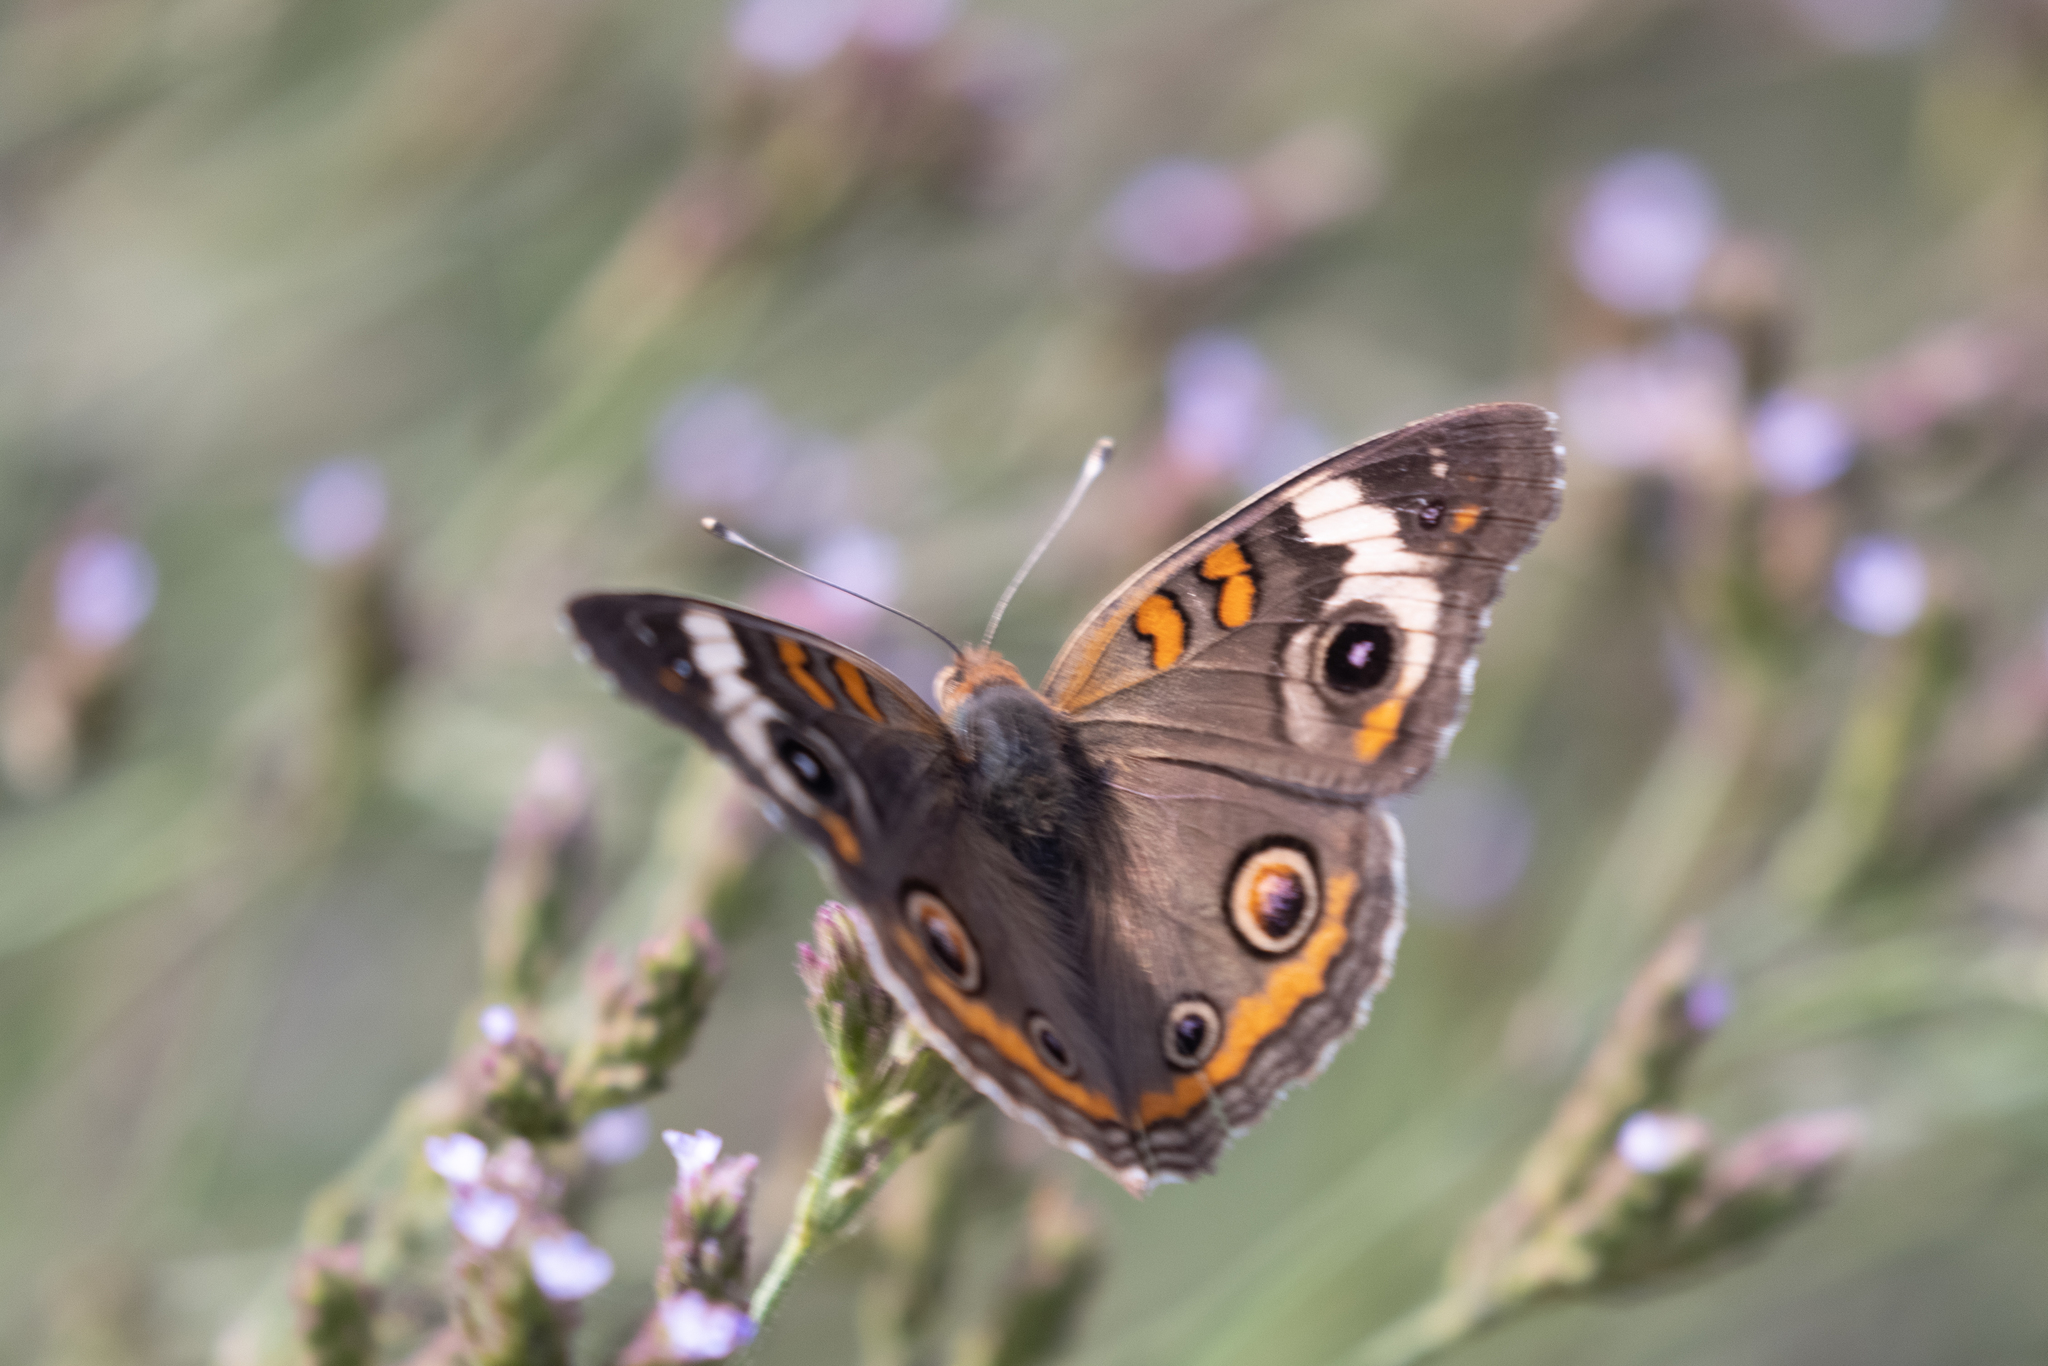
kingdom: Animalia
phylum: Arthropoda
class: Insecta
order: Lepidoptera
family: Nymphalidae
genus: Junonia
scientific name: Junonia coenia
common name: Common buckeye
